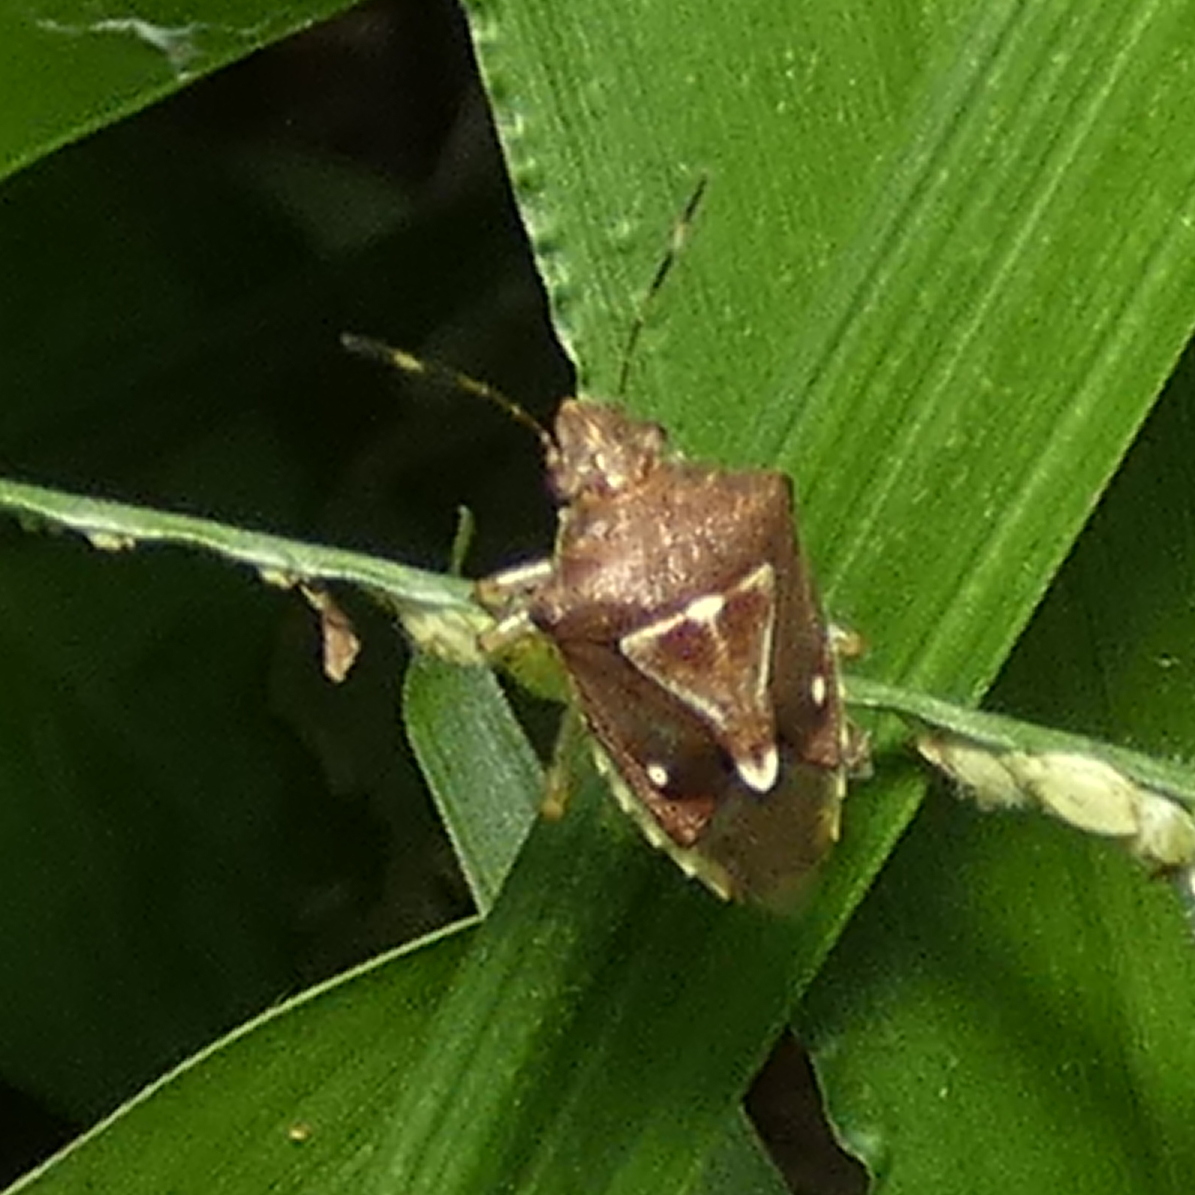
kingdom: Animalia
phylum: Arthropoda
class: Insecta
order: Hemiptera
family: Pentatomidae
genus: Mormidea
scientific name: Mormidea notulifera
